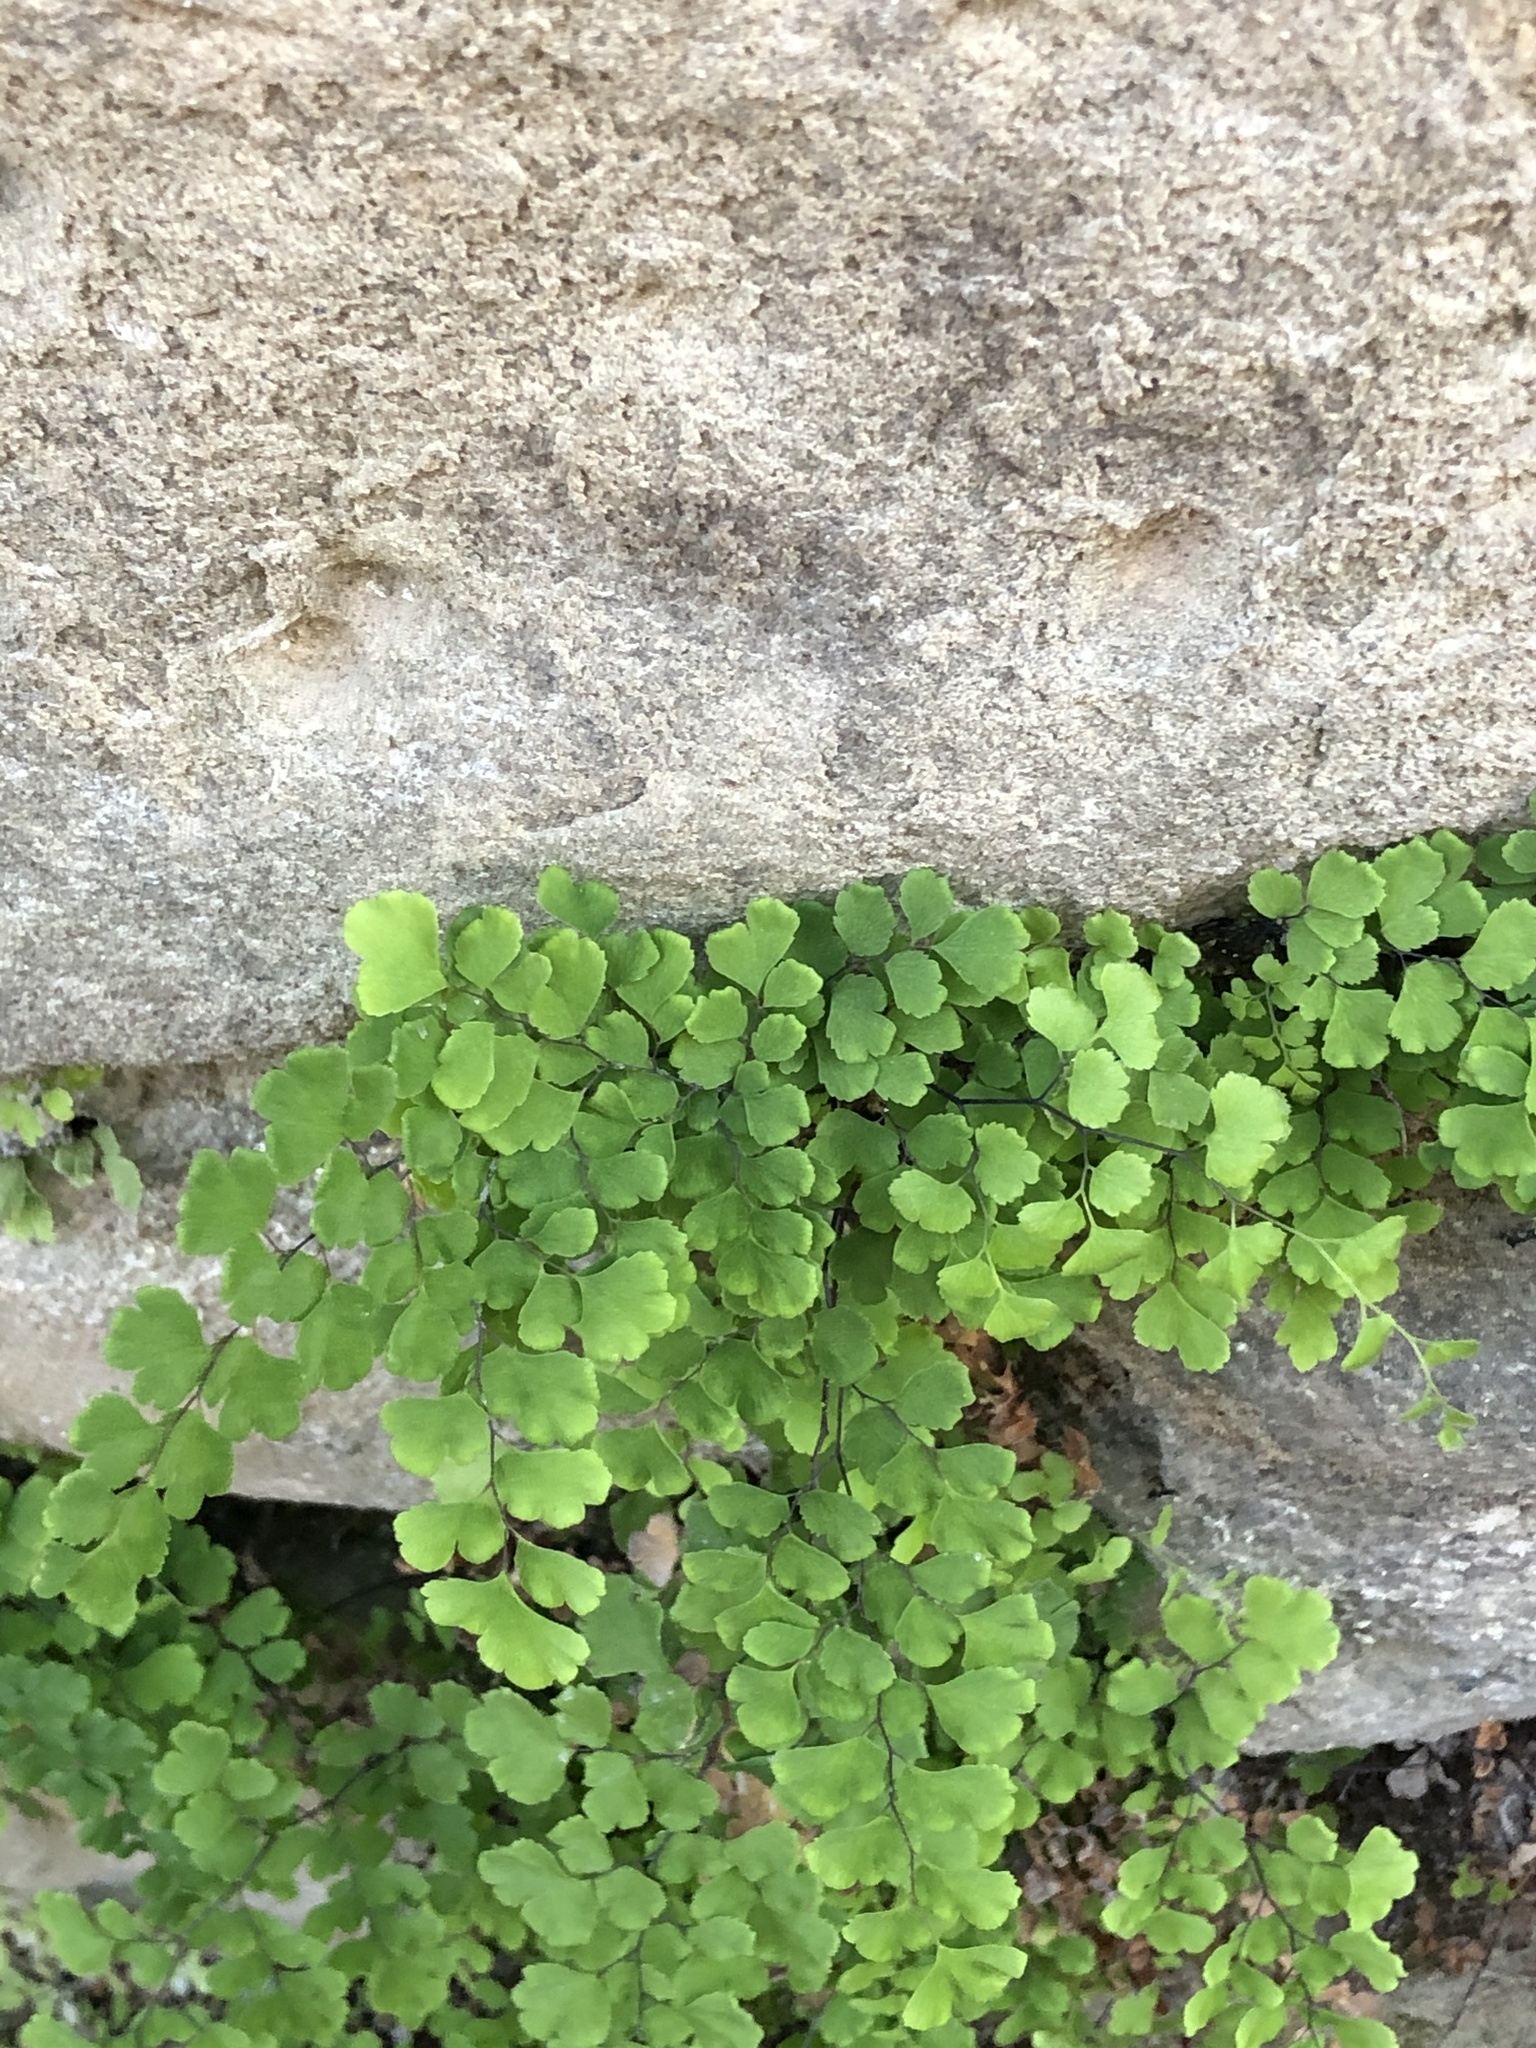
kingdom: Plantae
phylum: Tracheophyta
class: Polypodiopsida
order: Polypodiales
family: Pteridaceae
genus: Adiantum
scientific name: Adiantum capillus-veneris
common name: Maidenhair fern
